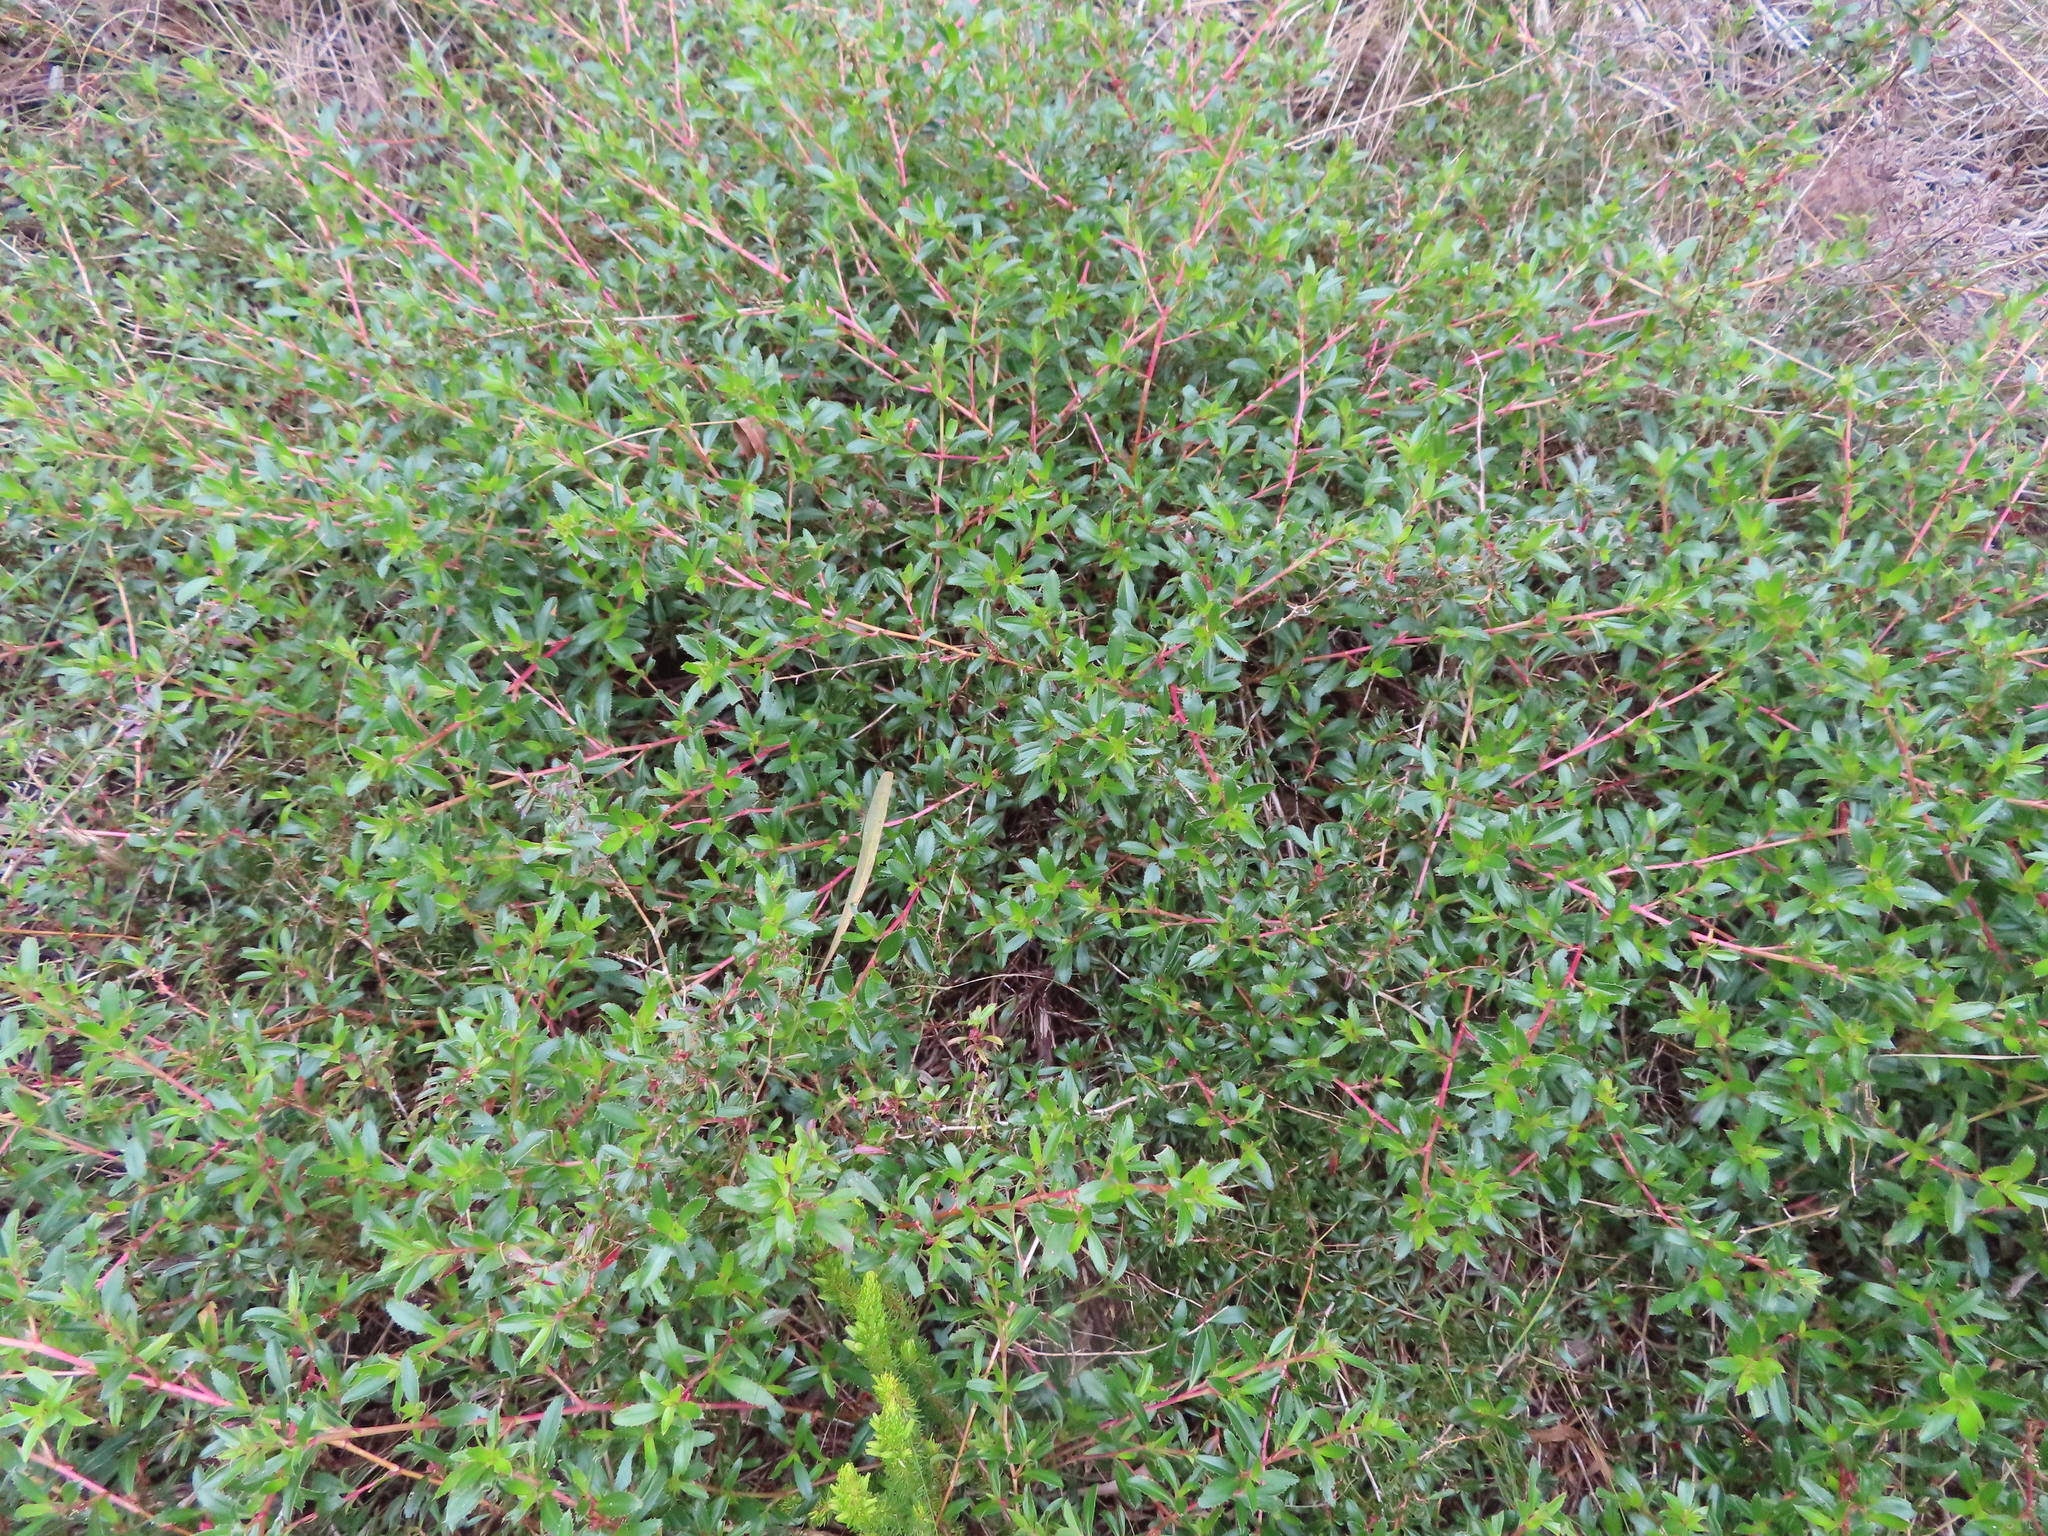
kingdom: Plantae
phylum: Tracheophyta
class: Magnoliopsida
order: Rosales
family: Rosaceae
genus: Cliffortia
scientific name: Cliffortia ferruginea
